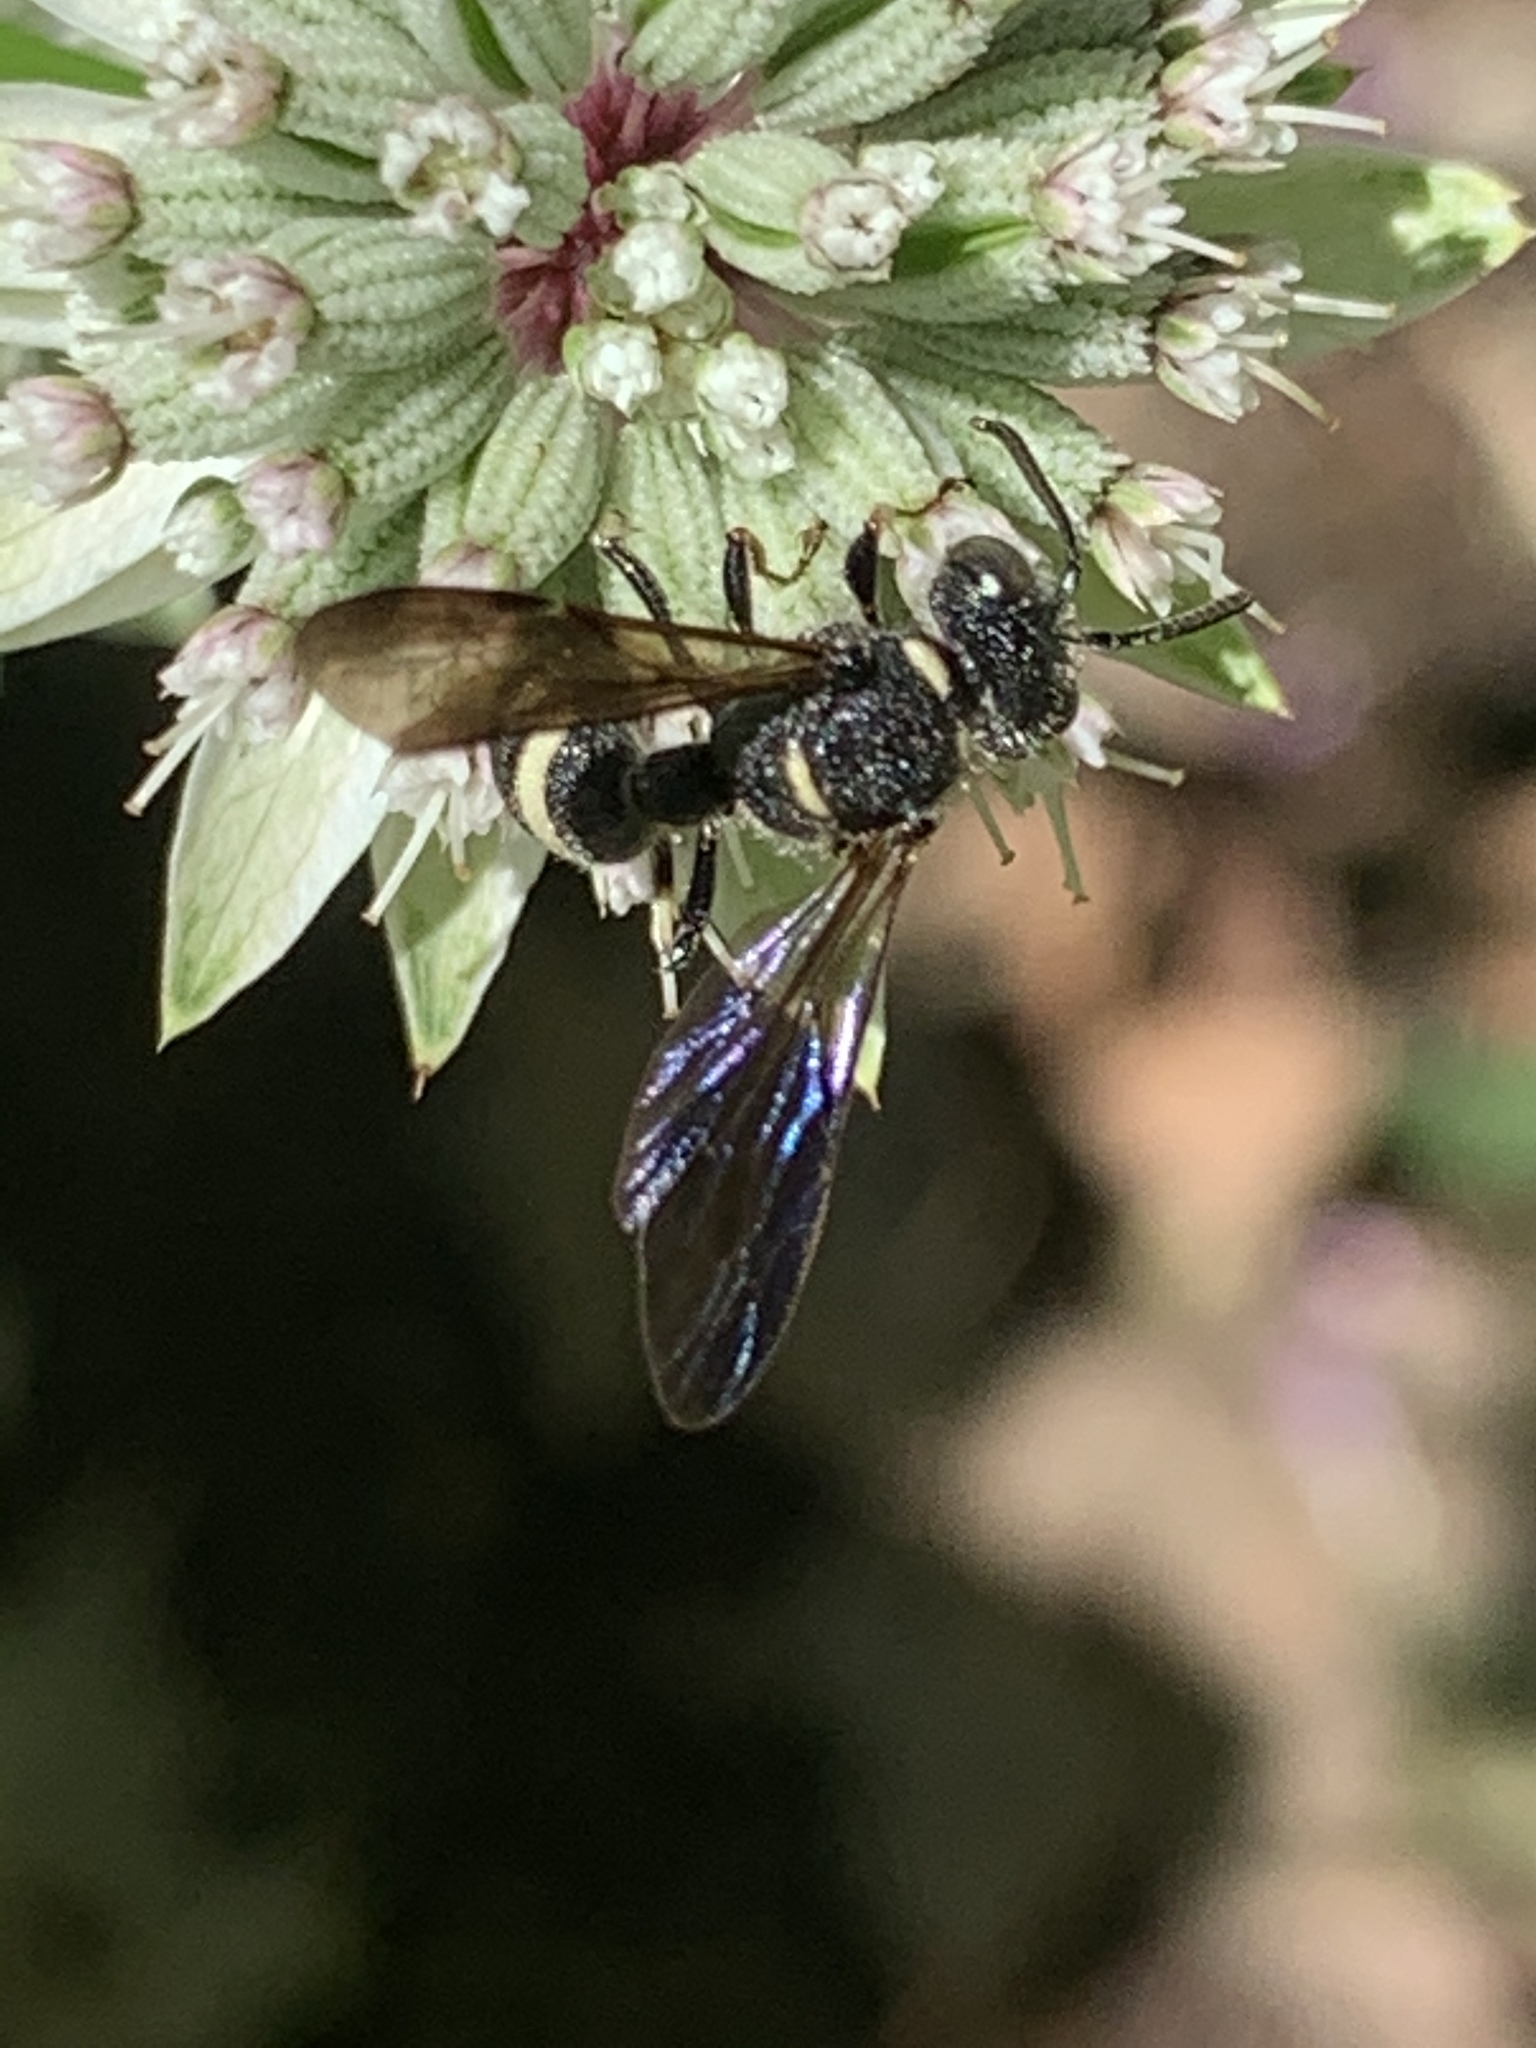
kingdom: Animalia
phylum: Arthropoda
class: Insecta
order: Hymenoptera
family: Crabronidae
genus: Cerceris
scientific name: Cerceris fumipennis
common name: Smokey-winged beetle bandit wasp
